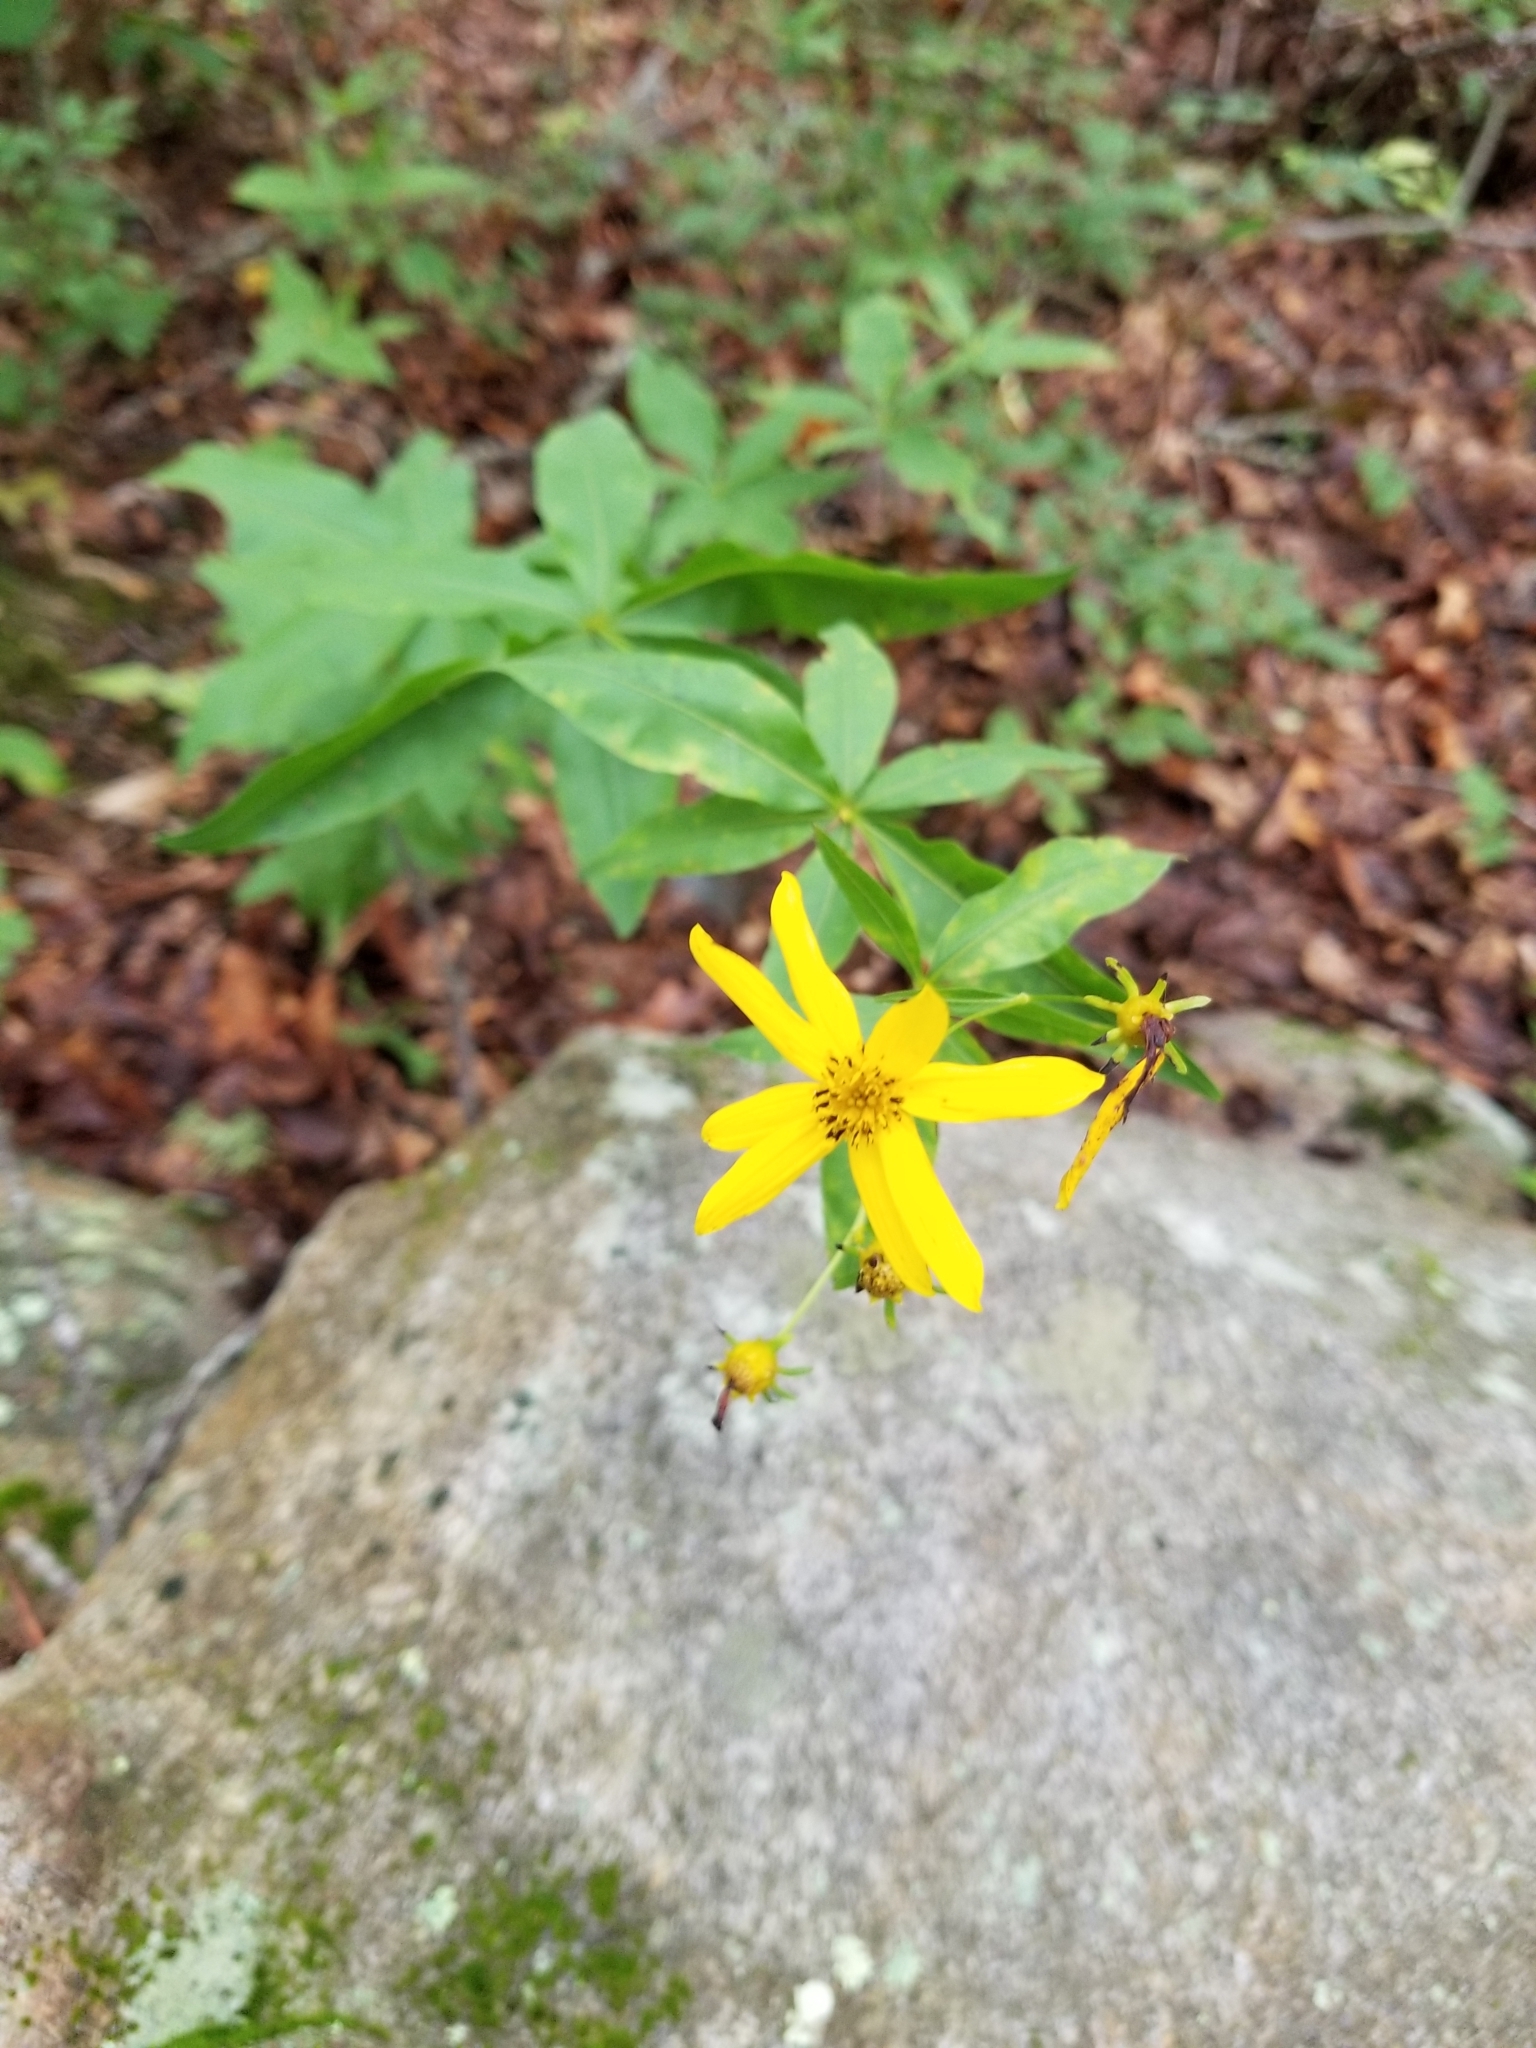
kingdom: Plantae
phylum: Tracheophyta
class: Magnoliopsida
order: Asterales
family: Asteraceae
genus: Coreopsis
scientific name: Coreopsis major
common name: Forest tickseed
